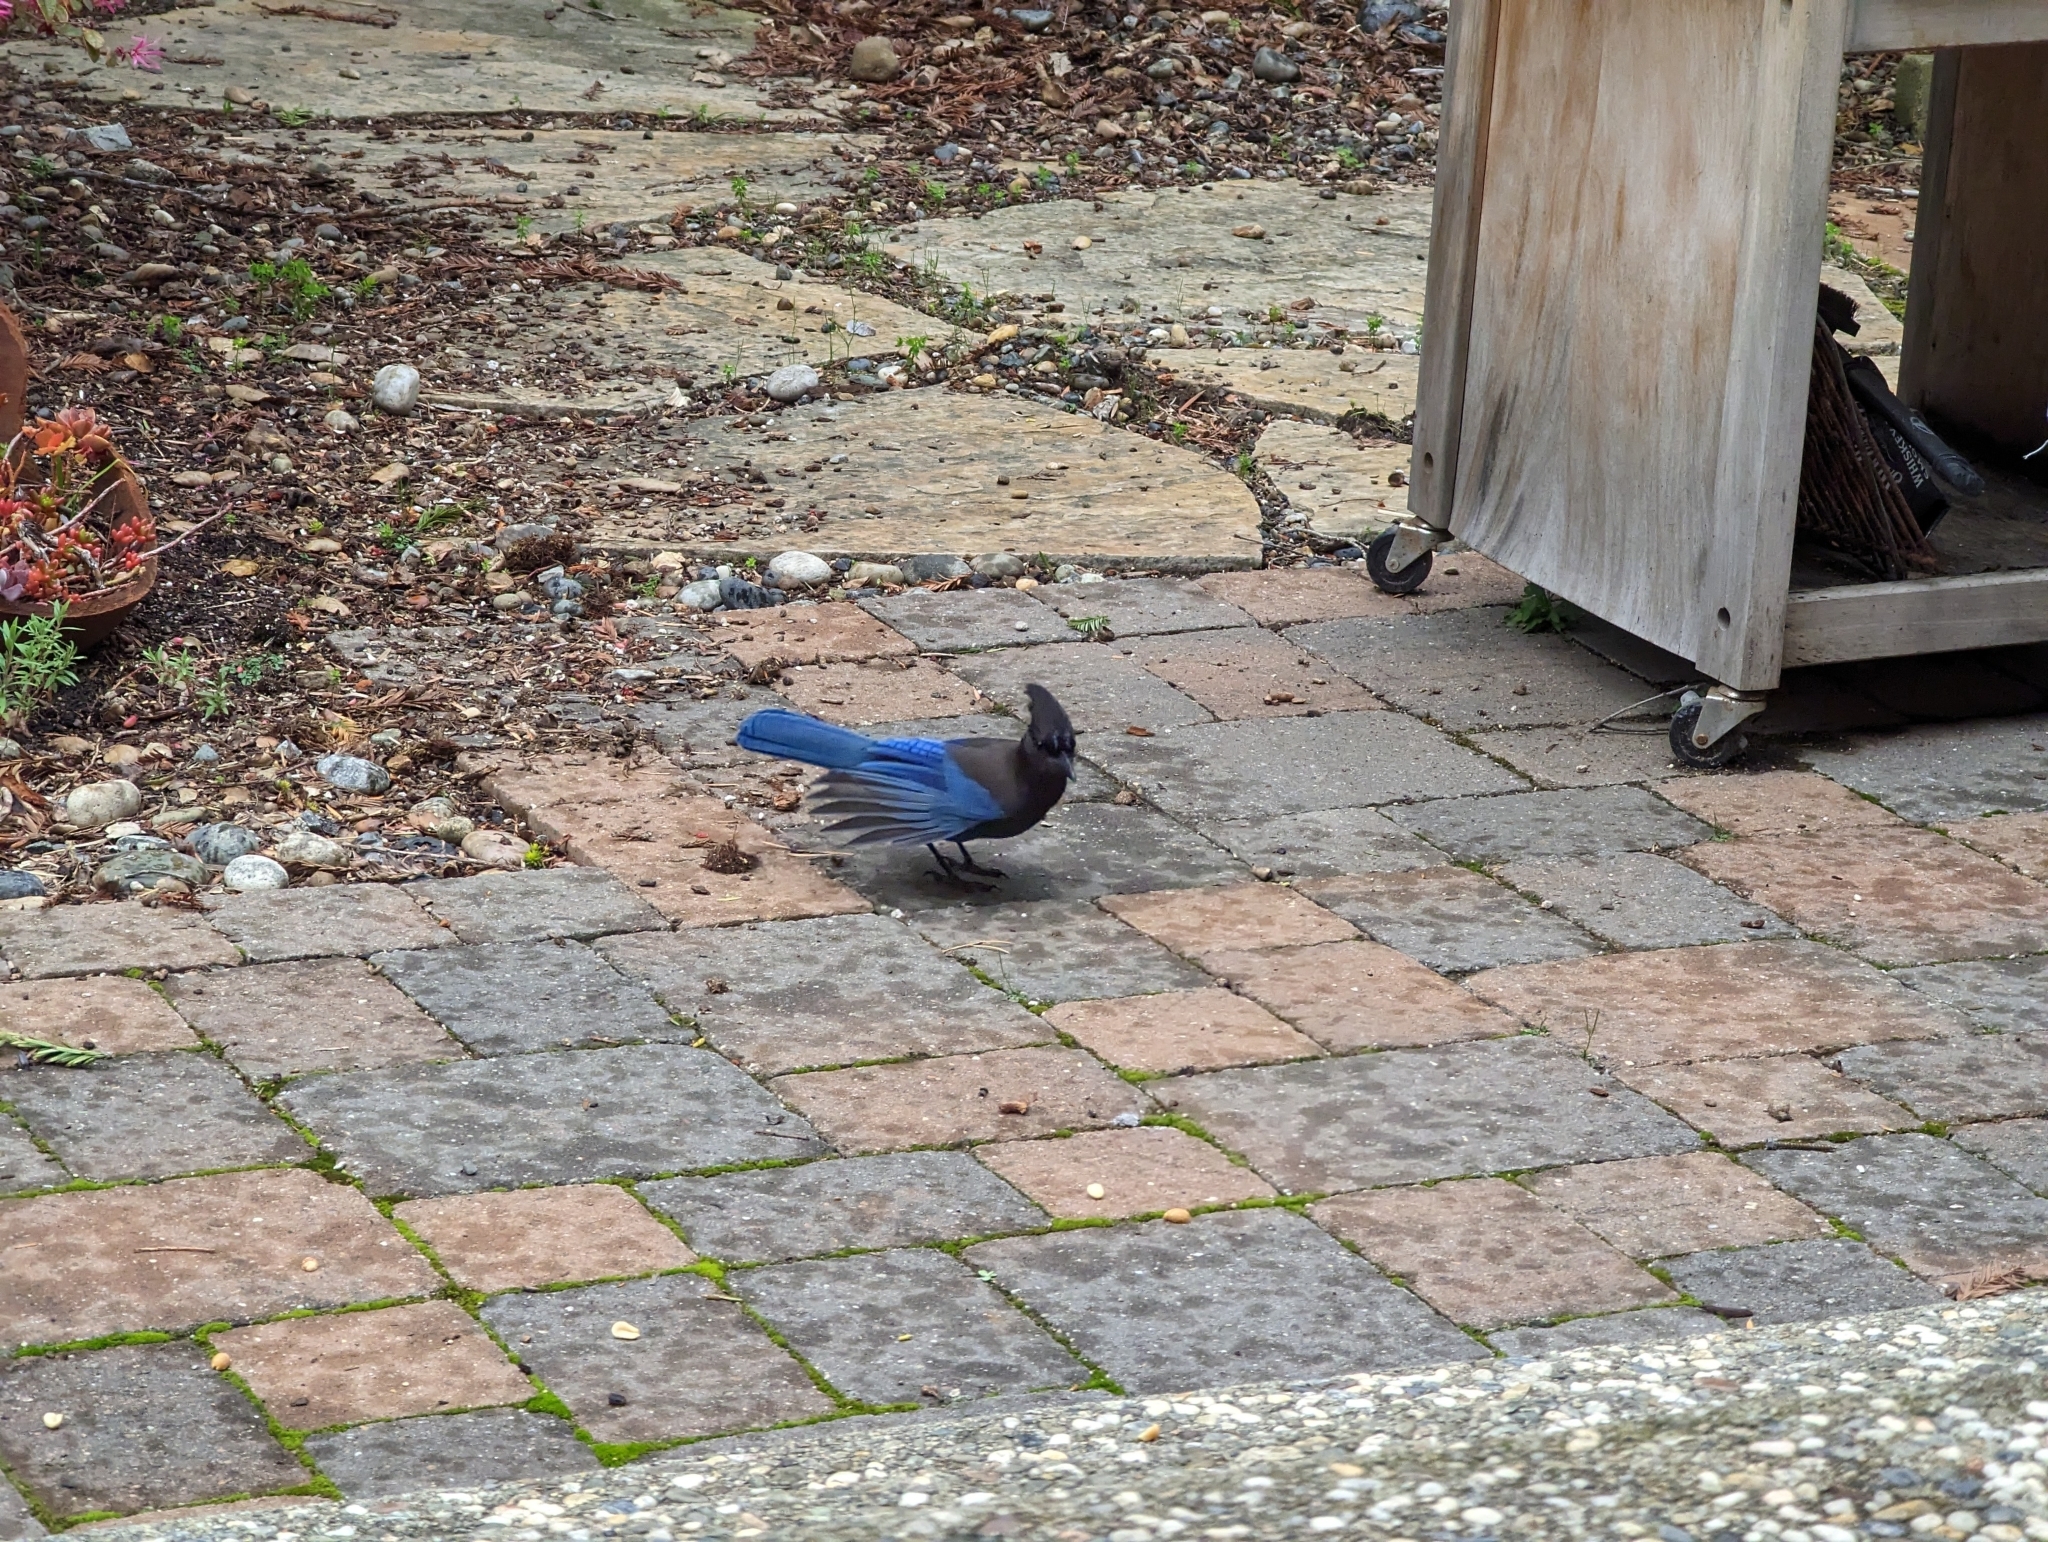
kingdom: Animalia
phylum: Chordata
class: Aves
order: Passeriformes
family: Corvidae
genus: Cyanocitta
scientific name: Cyanocitta stelleri
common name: Steller's jay
